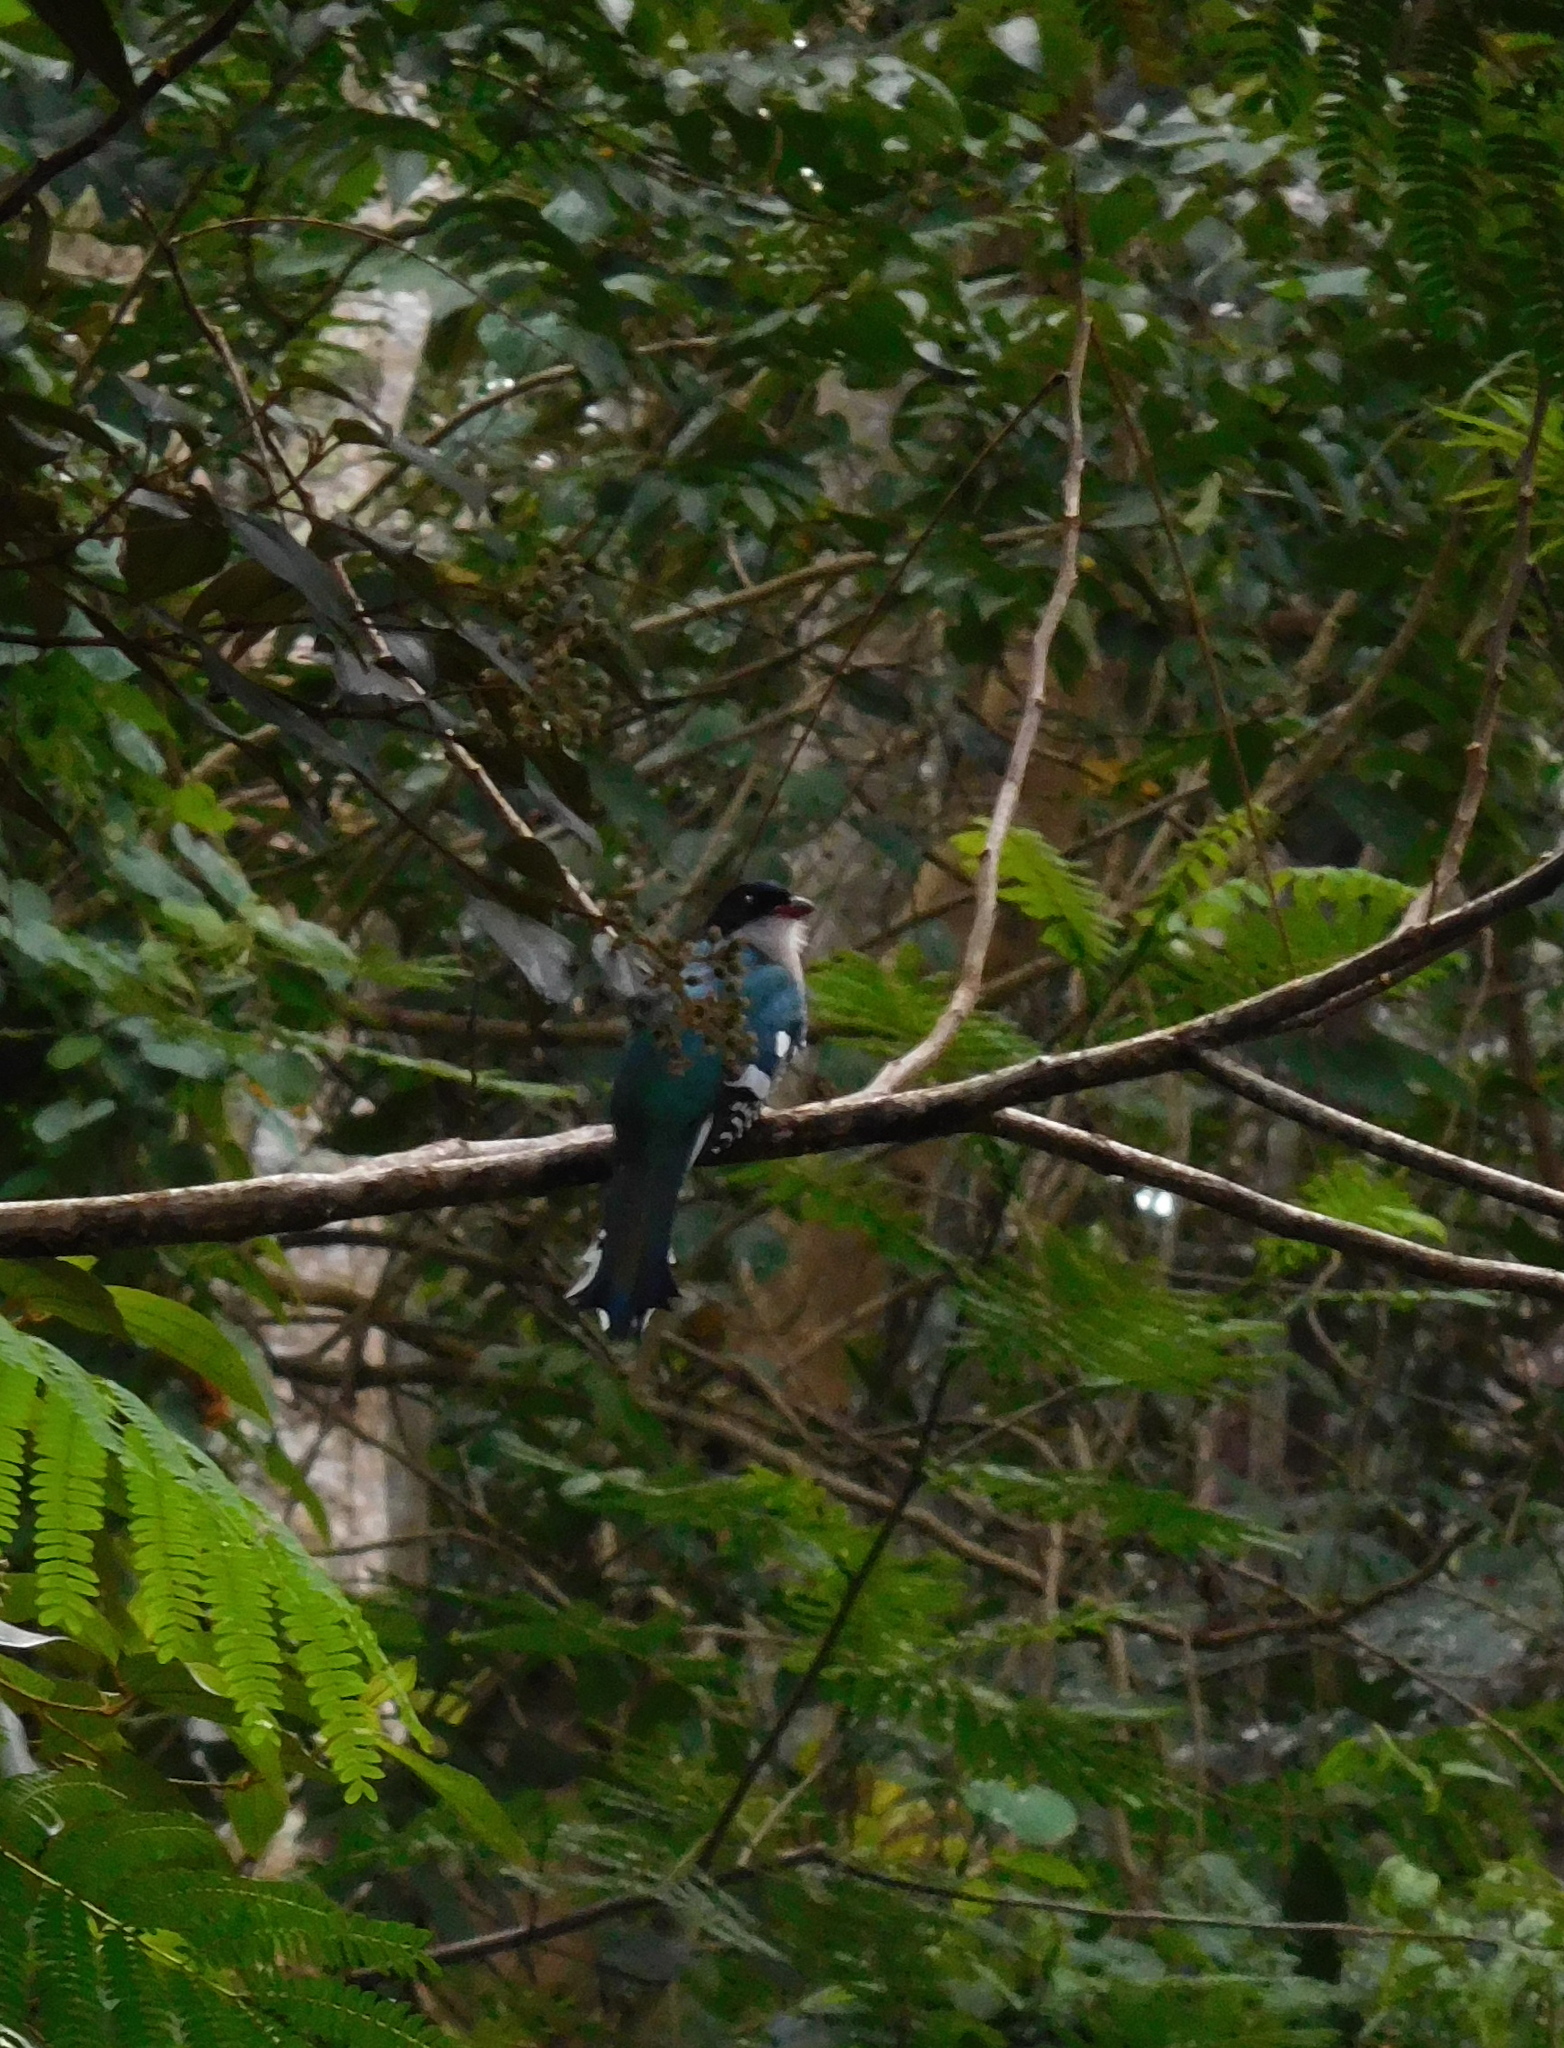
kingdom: Animalia
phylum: Chordata
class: Aves
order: Trogoniformes
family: Trogonidae
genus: Priotelus
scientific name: Priotelus temnurus
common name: Cuban trogon
